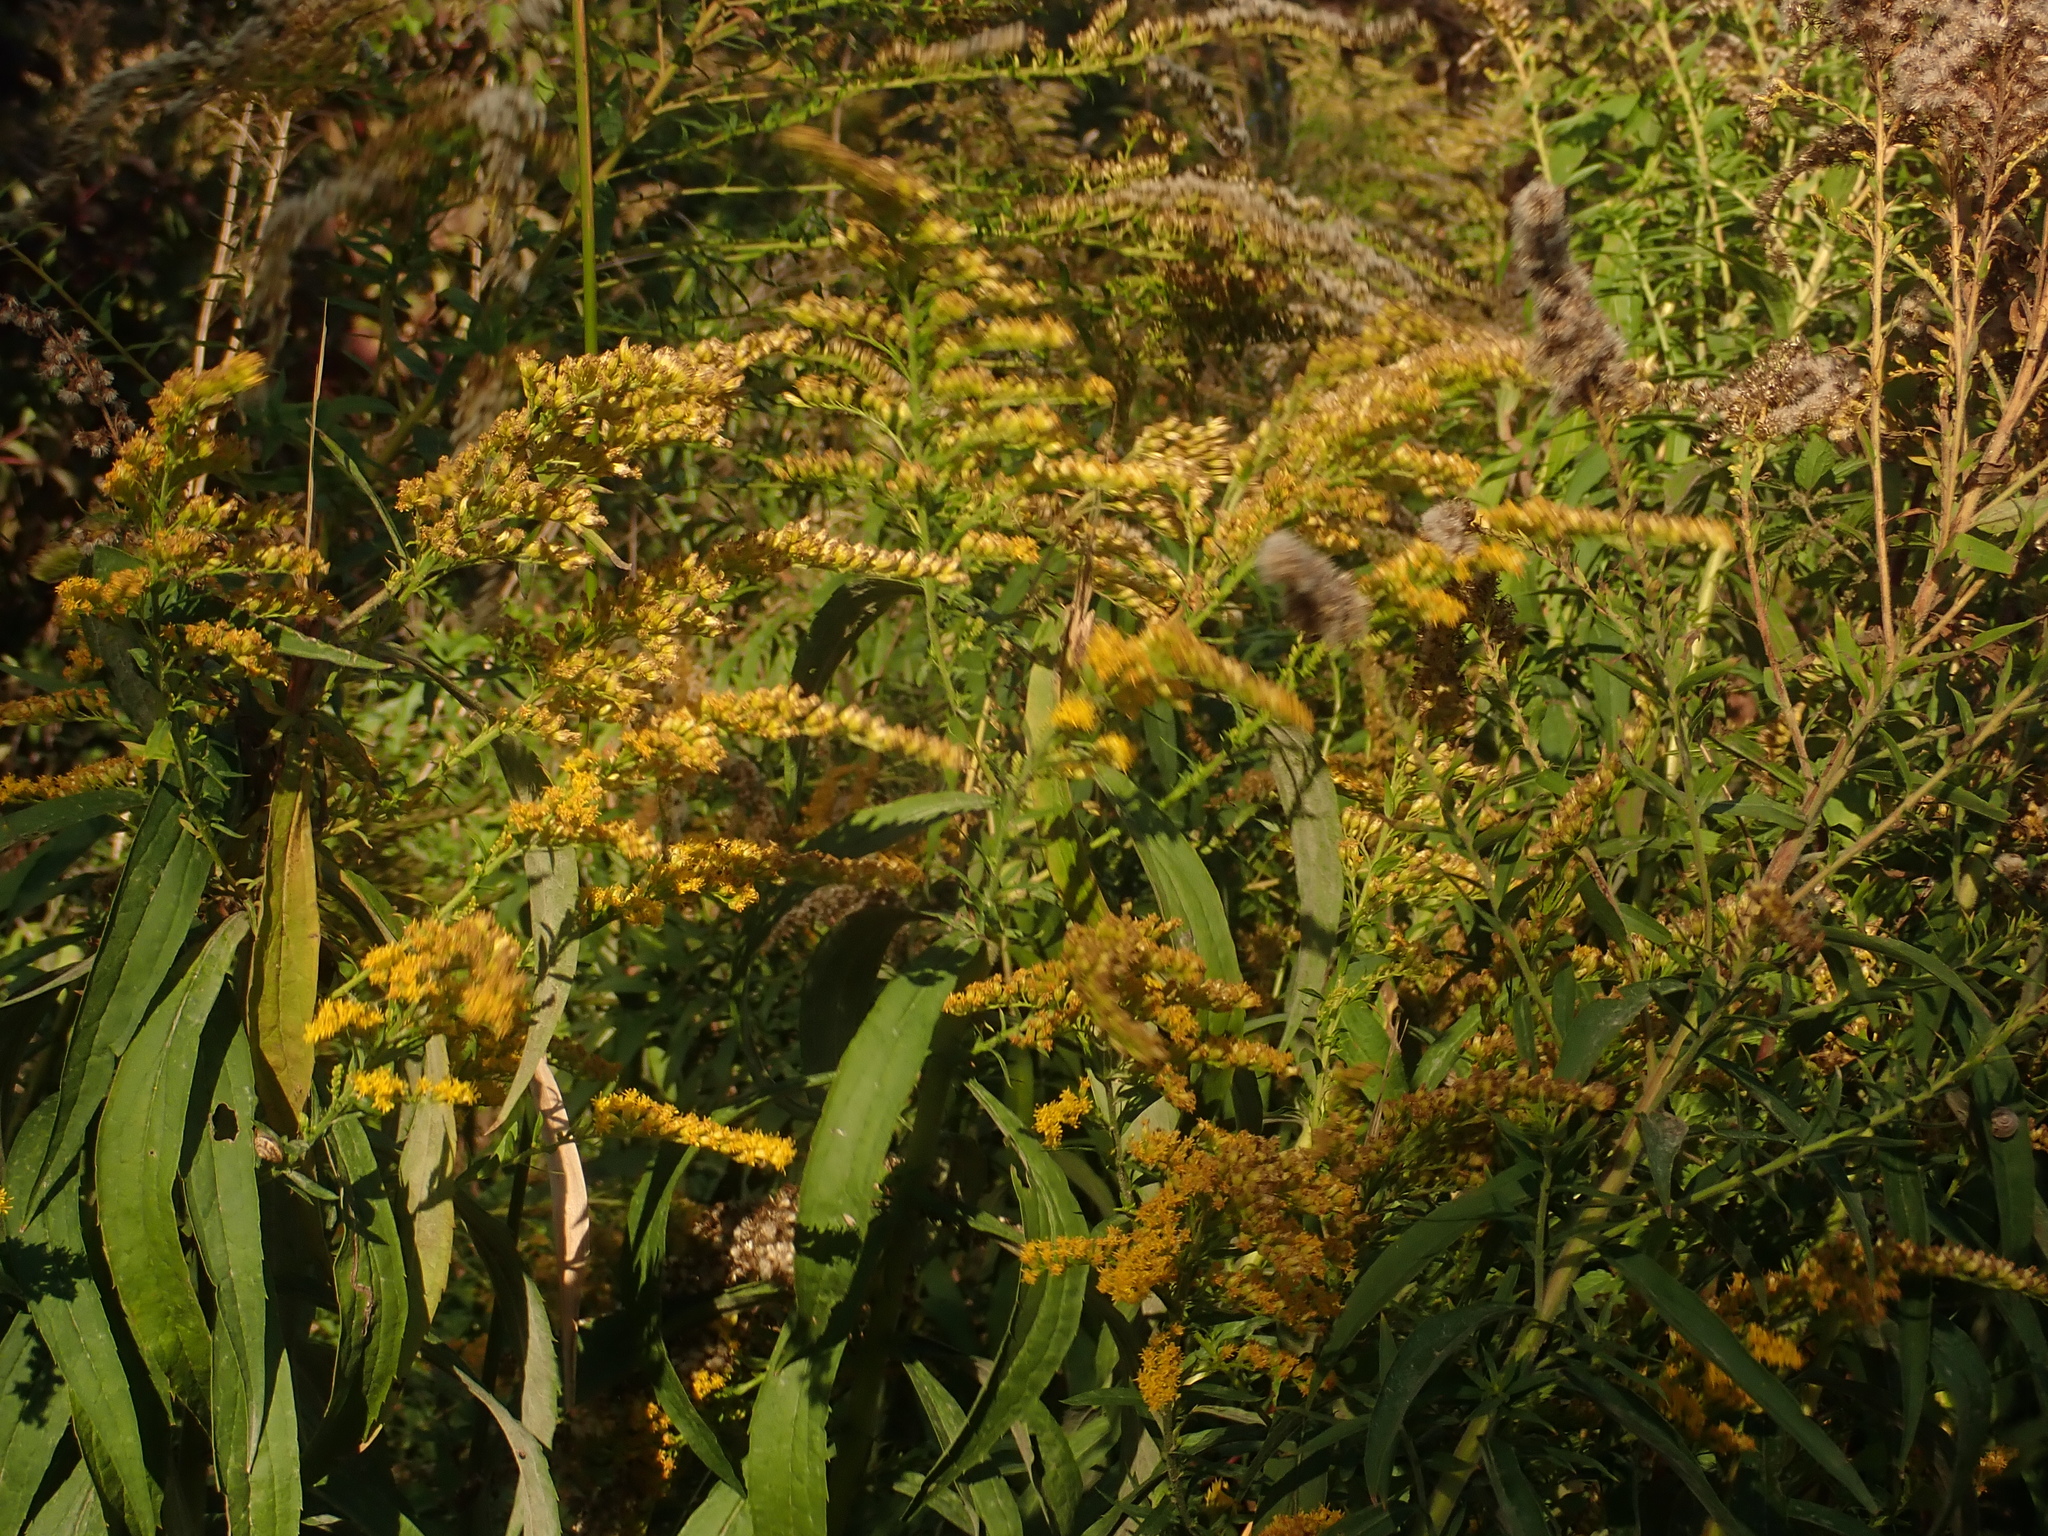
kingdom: Plantae
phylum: Tracheophyta
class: Magnoliopsida
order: Asterales
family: Asteraceae
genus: Solidago
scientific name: Solidago canadensis
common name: Canada goldenrod
